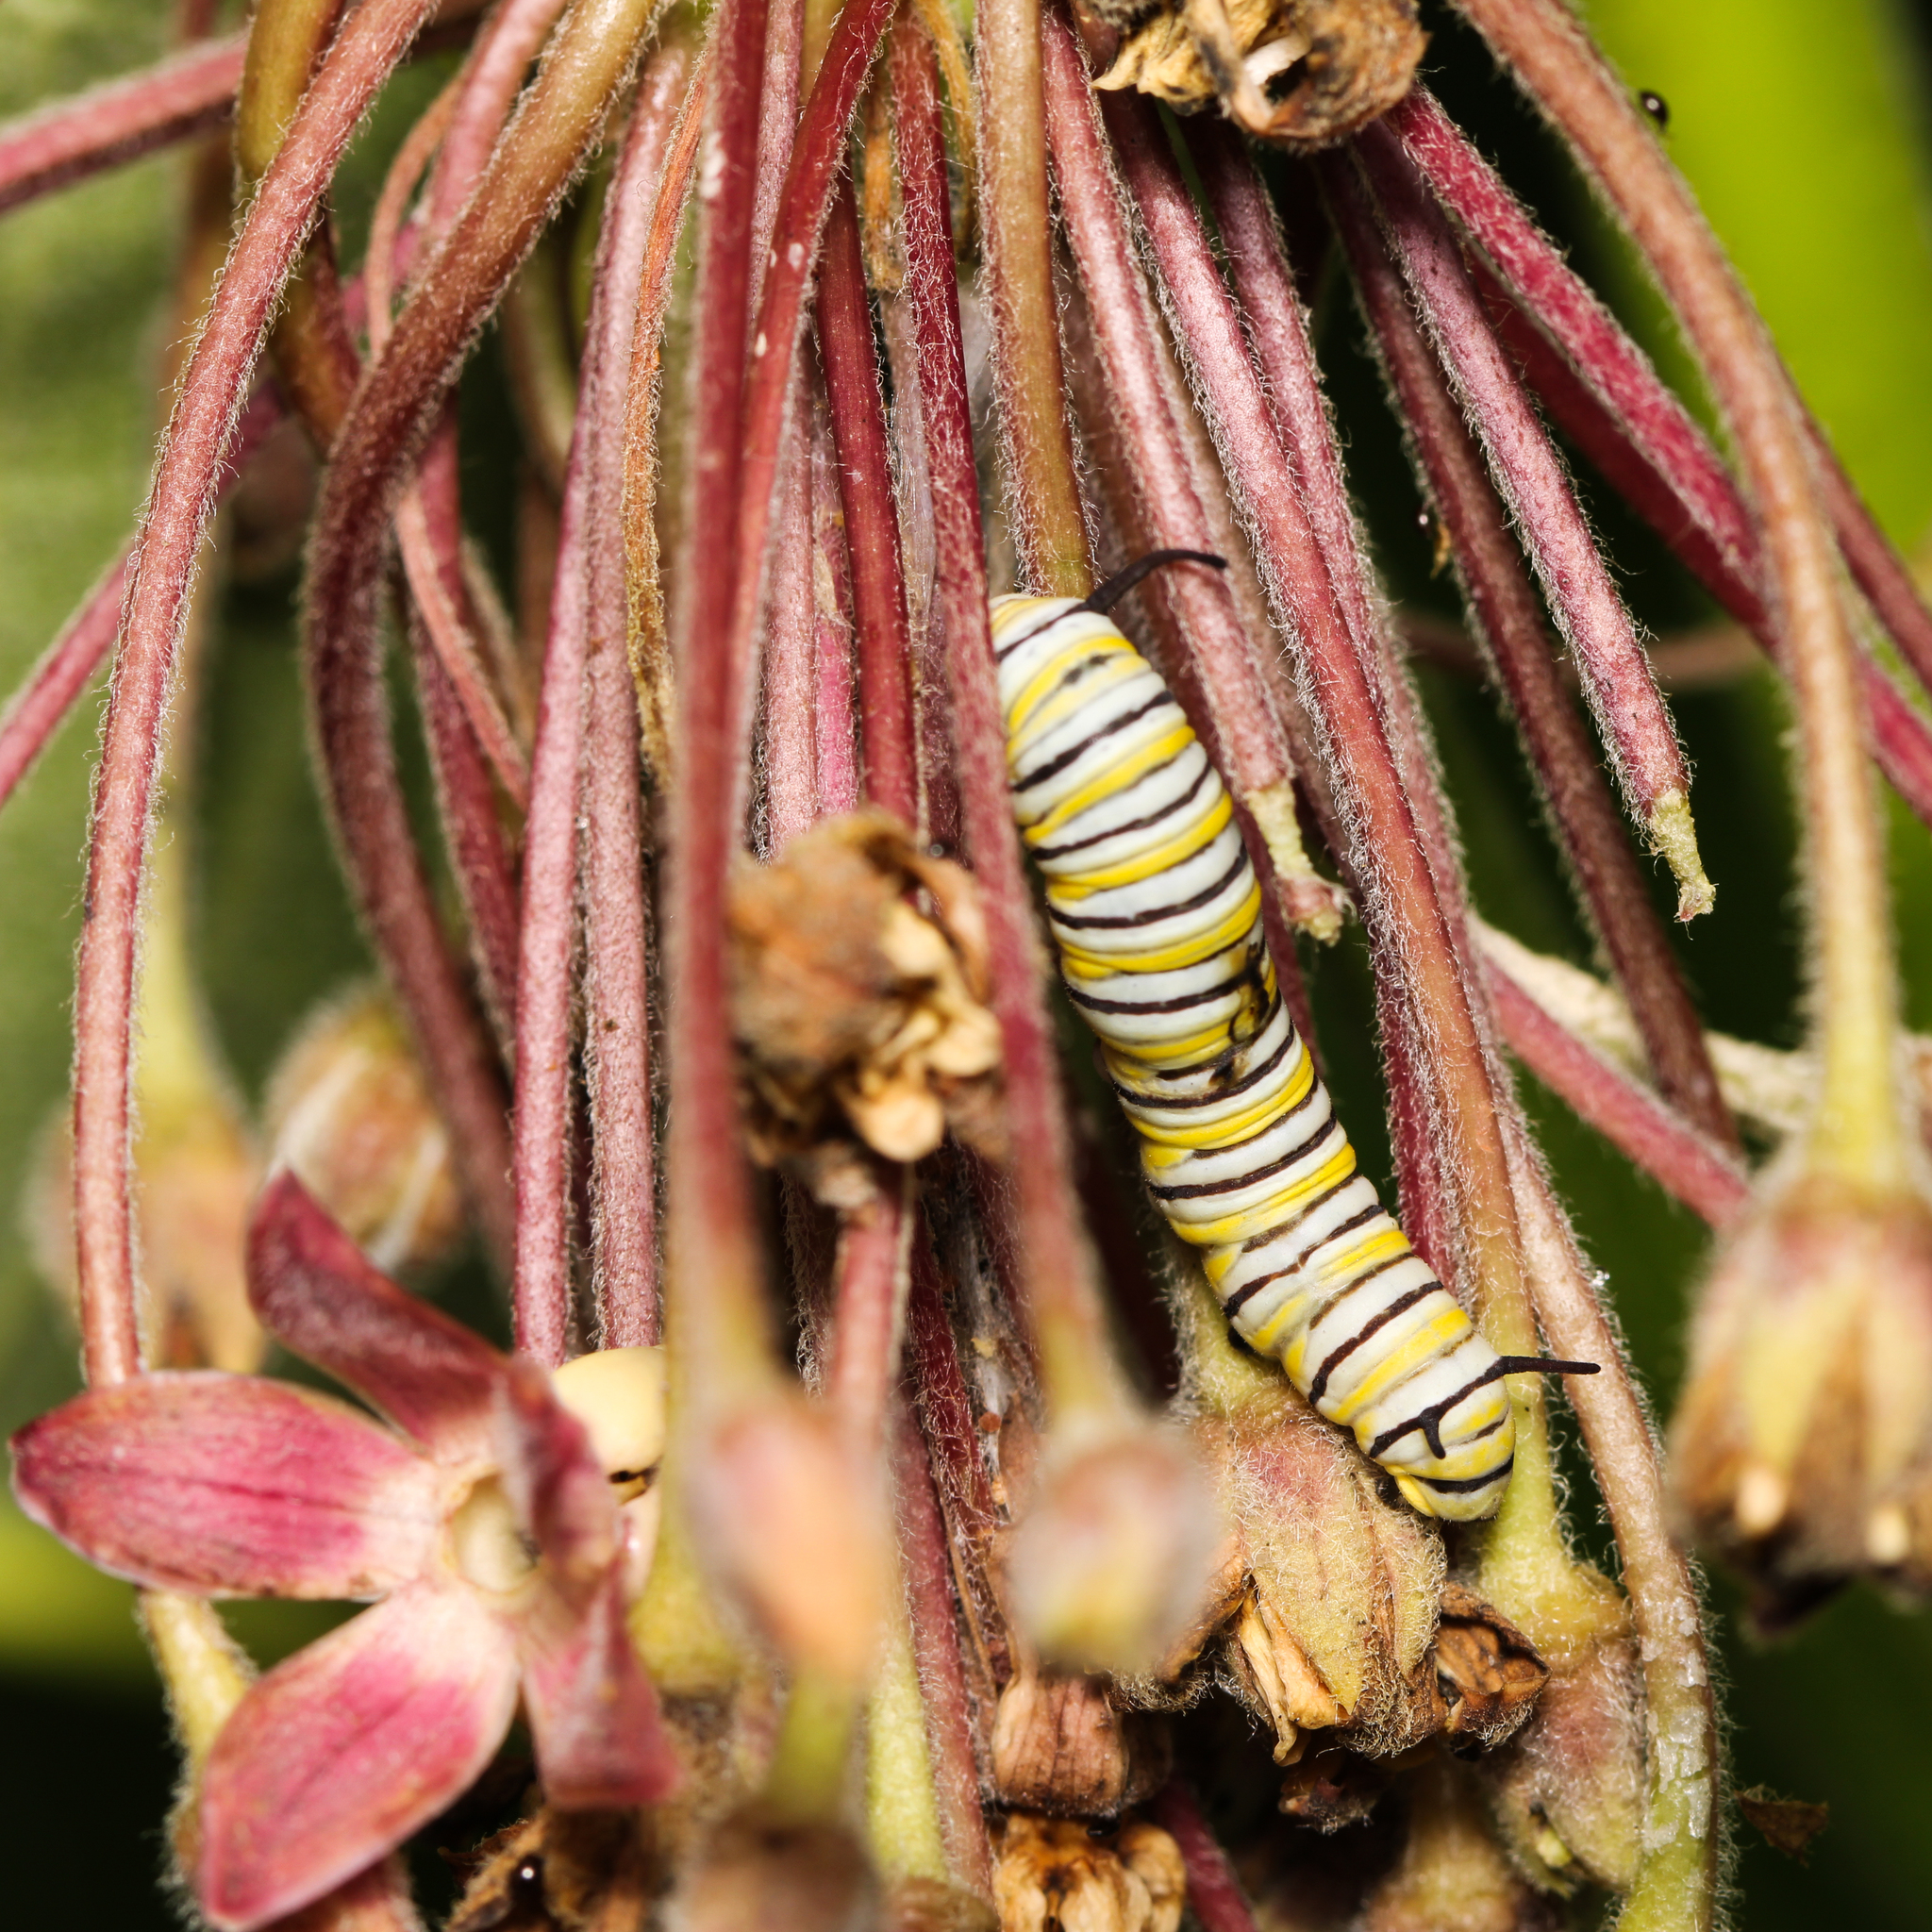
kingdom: Animalia
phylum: Arthropoda
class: Insecta
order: Lepidoptera
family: Nymphalidae
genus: Danaus
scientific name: Danaus plexippus
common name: Monarch
